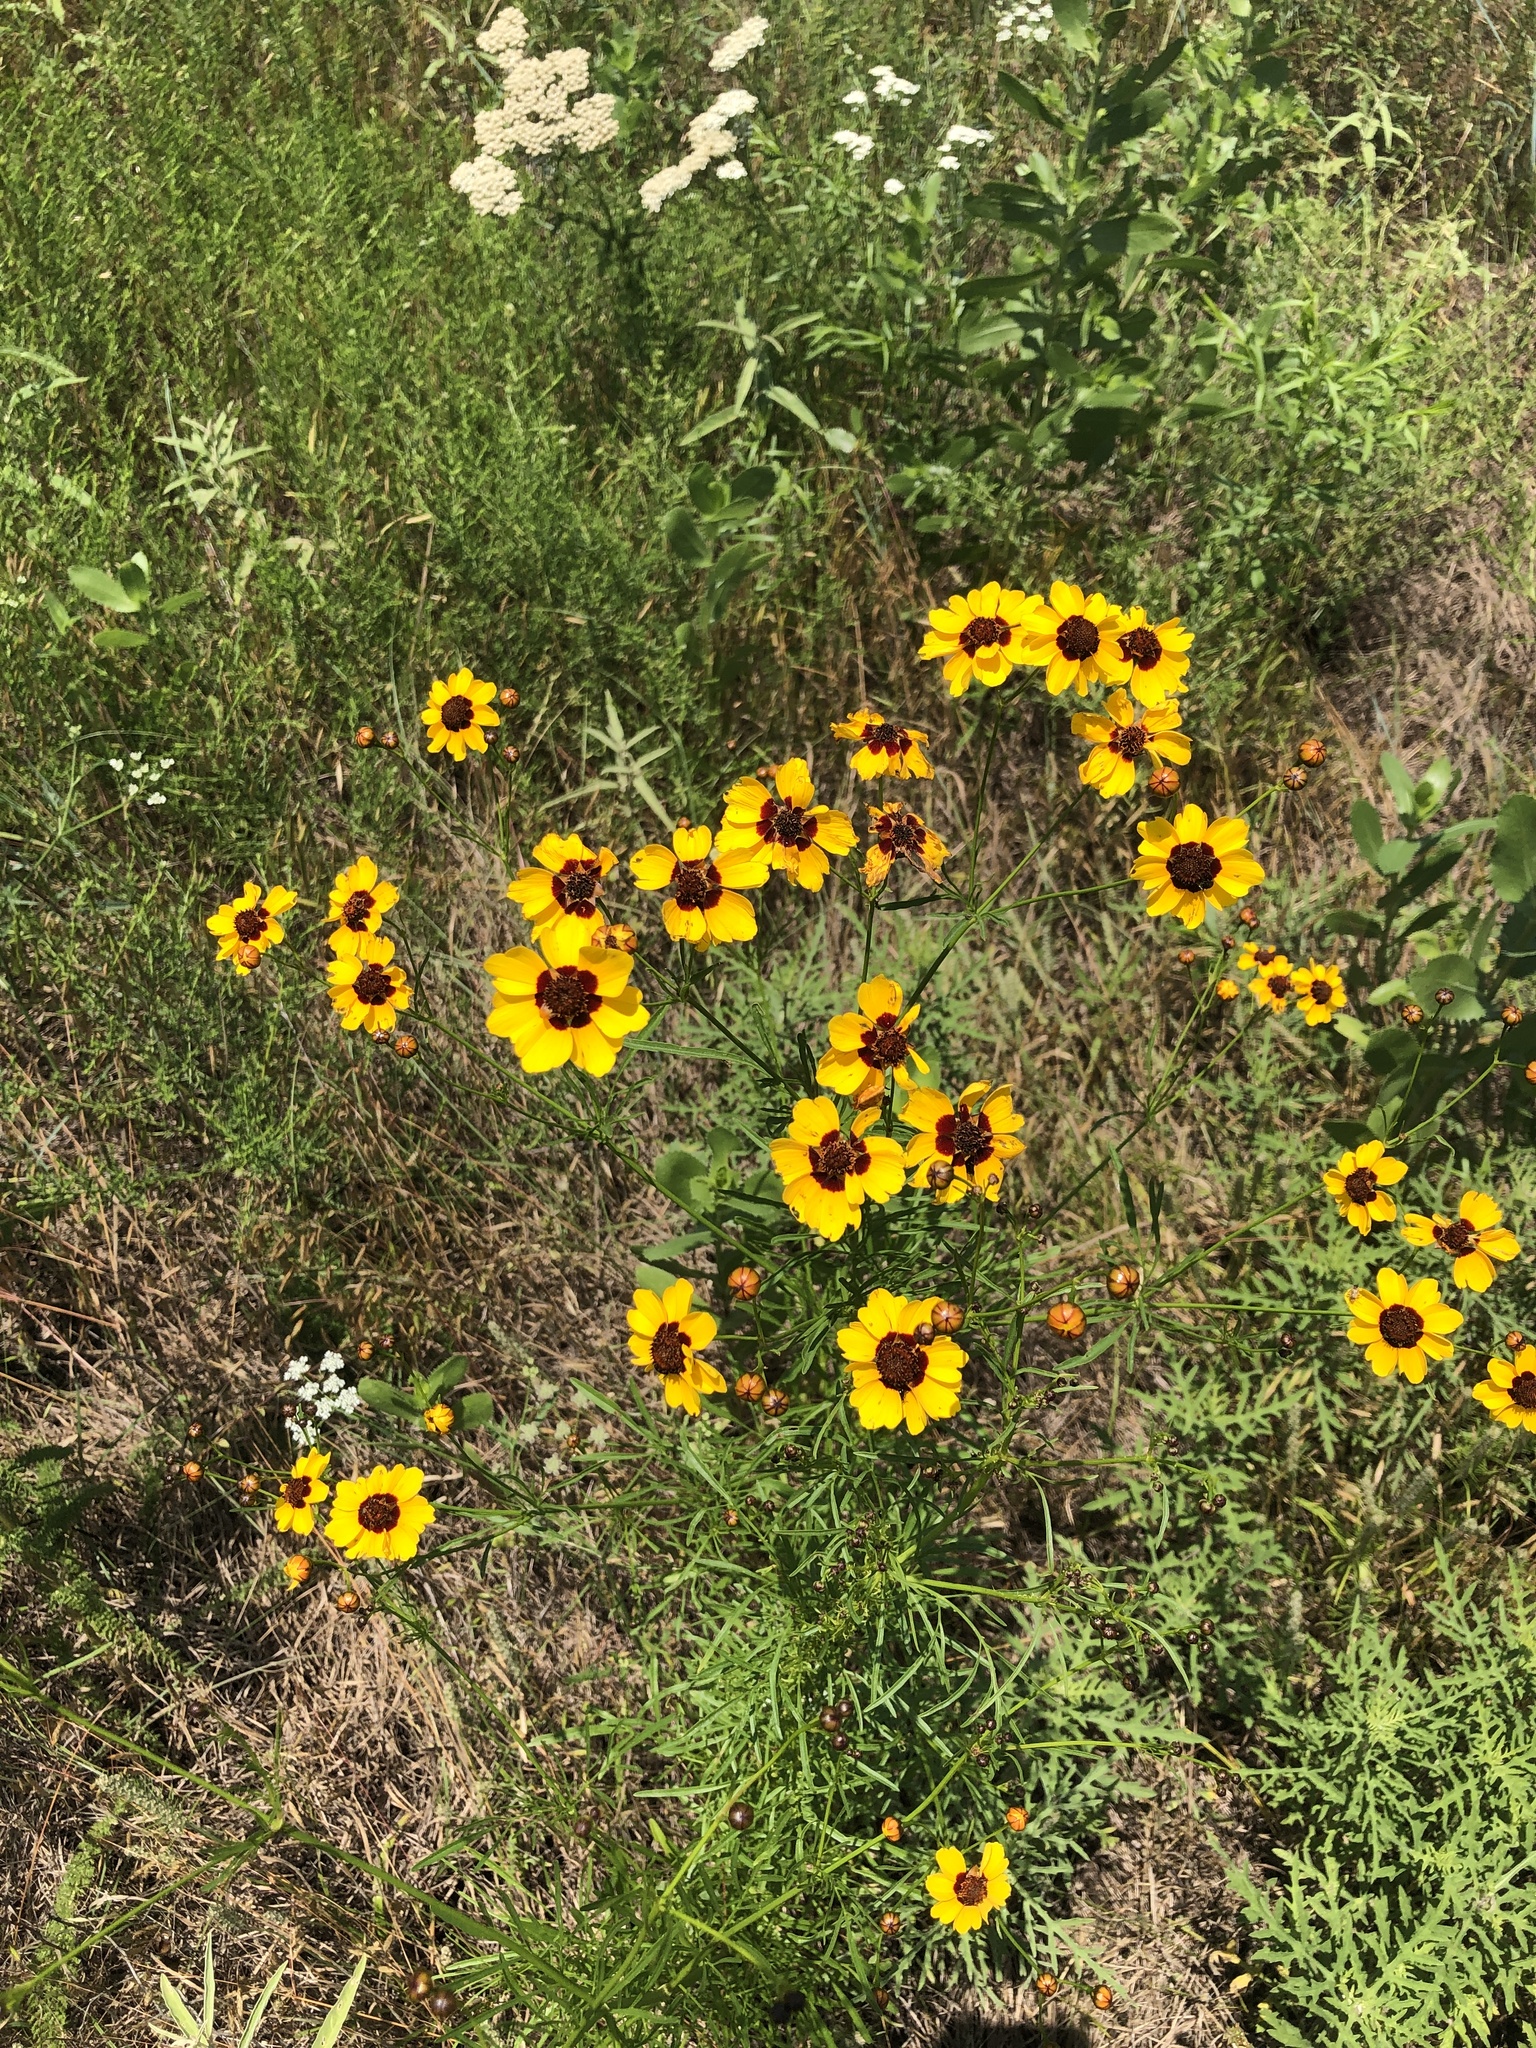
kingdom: Plantae
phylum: Tracheophyta
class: Magnoliopsida
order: Asterales
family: Asteraceae
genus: Coreopsis
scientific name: Coreopsis tinctoria
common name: Garden tickseed
